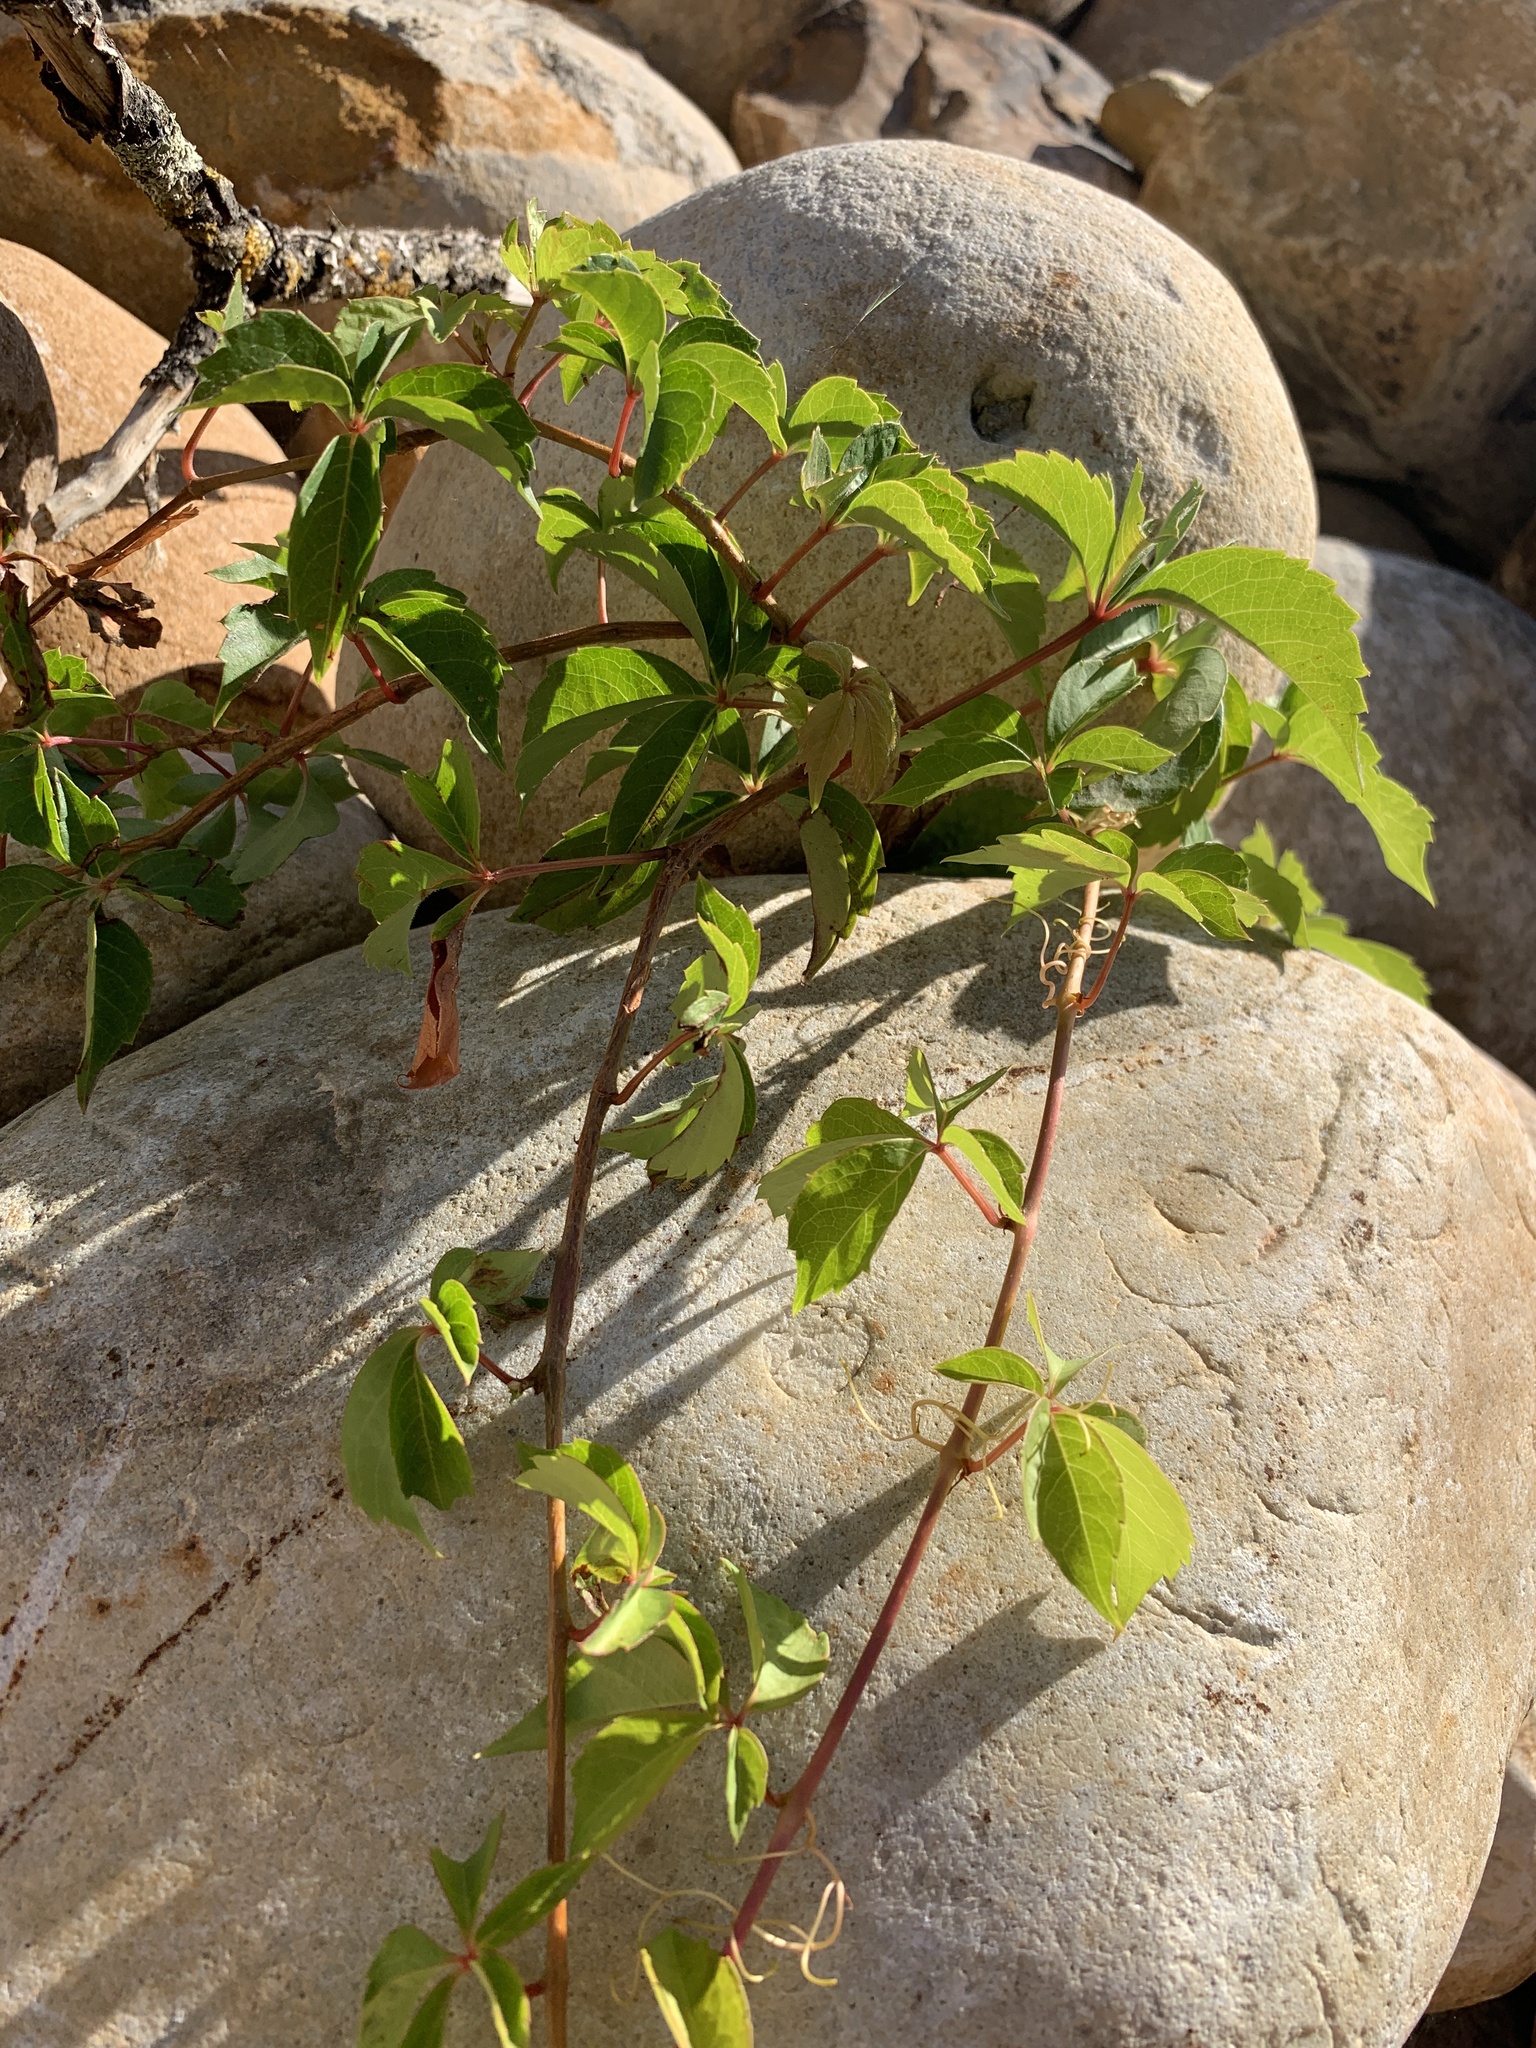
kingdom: Plantae
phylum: Tracheophyta
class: Magnoliopsida
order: Vitales
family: Vitaceae
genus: Parthenocissus
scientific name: Parthenocissus quinquefolia
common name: Virginia-creeper
